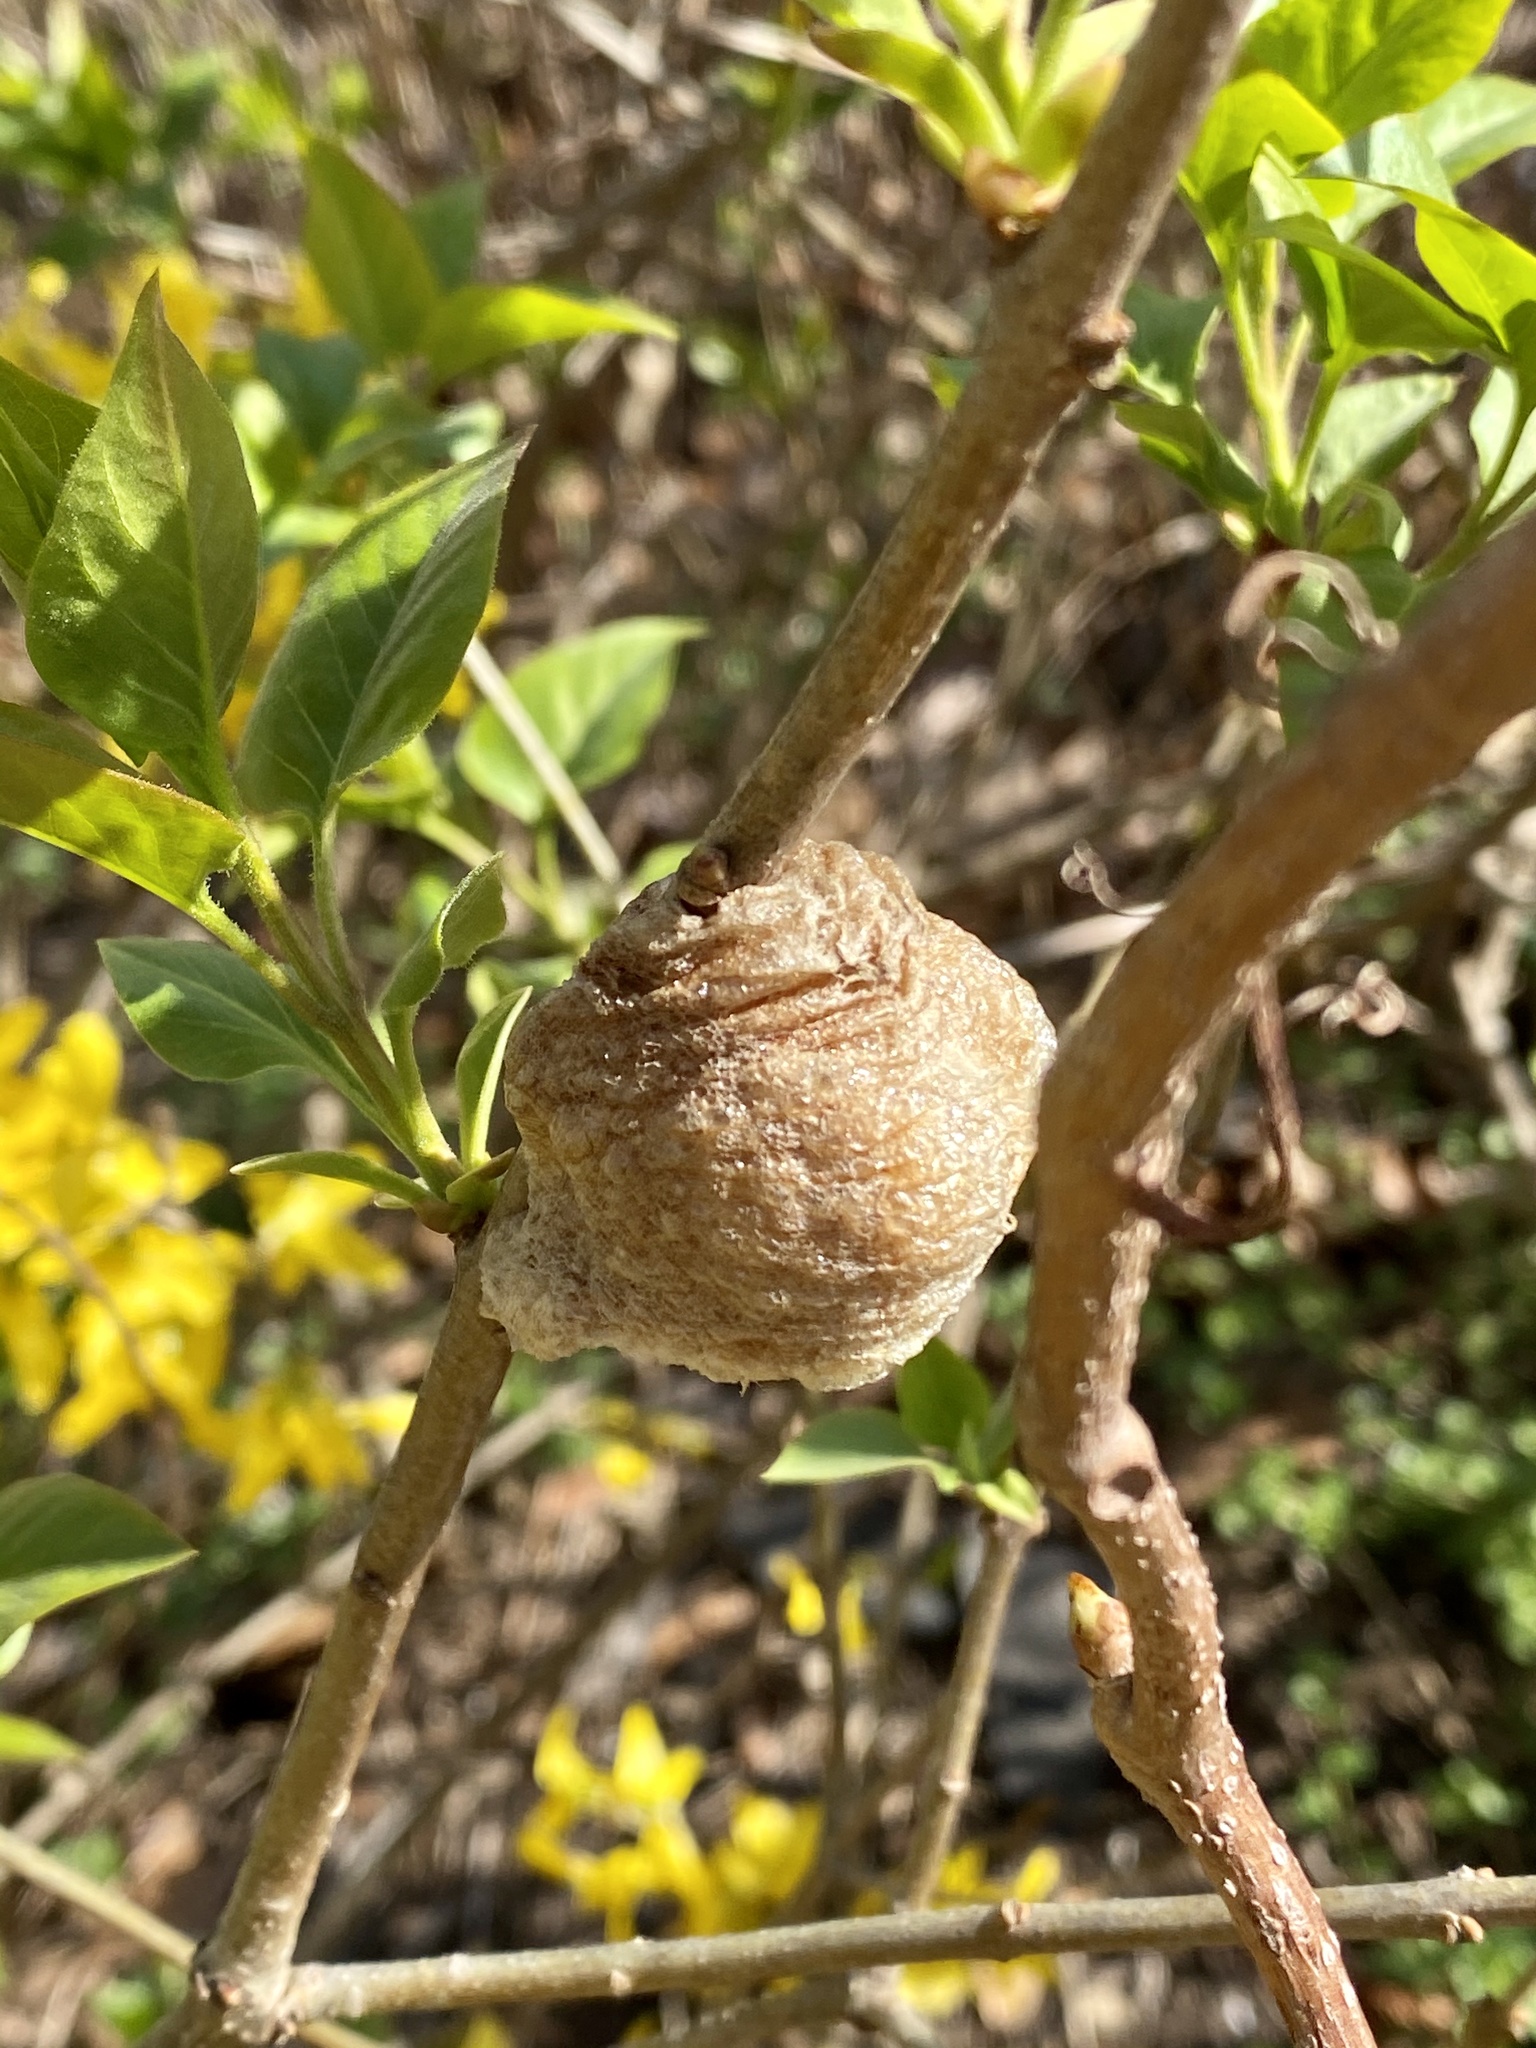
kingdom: Animalia
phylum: Arthropoda
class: Insecta
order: Mantodea
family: Mantidae
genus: Tenodera
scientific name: Tenodera sinensis
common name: Chinese mantis
